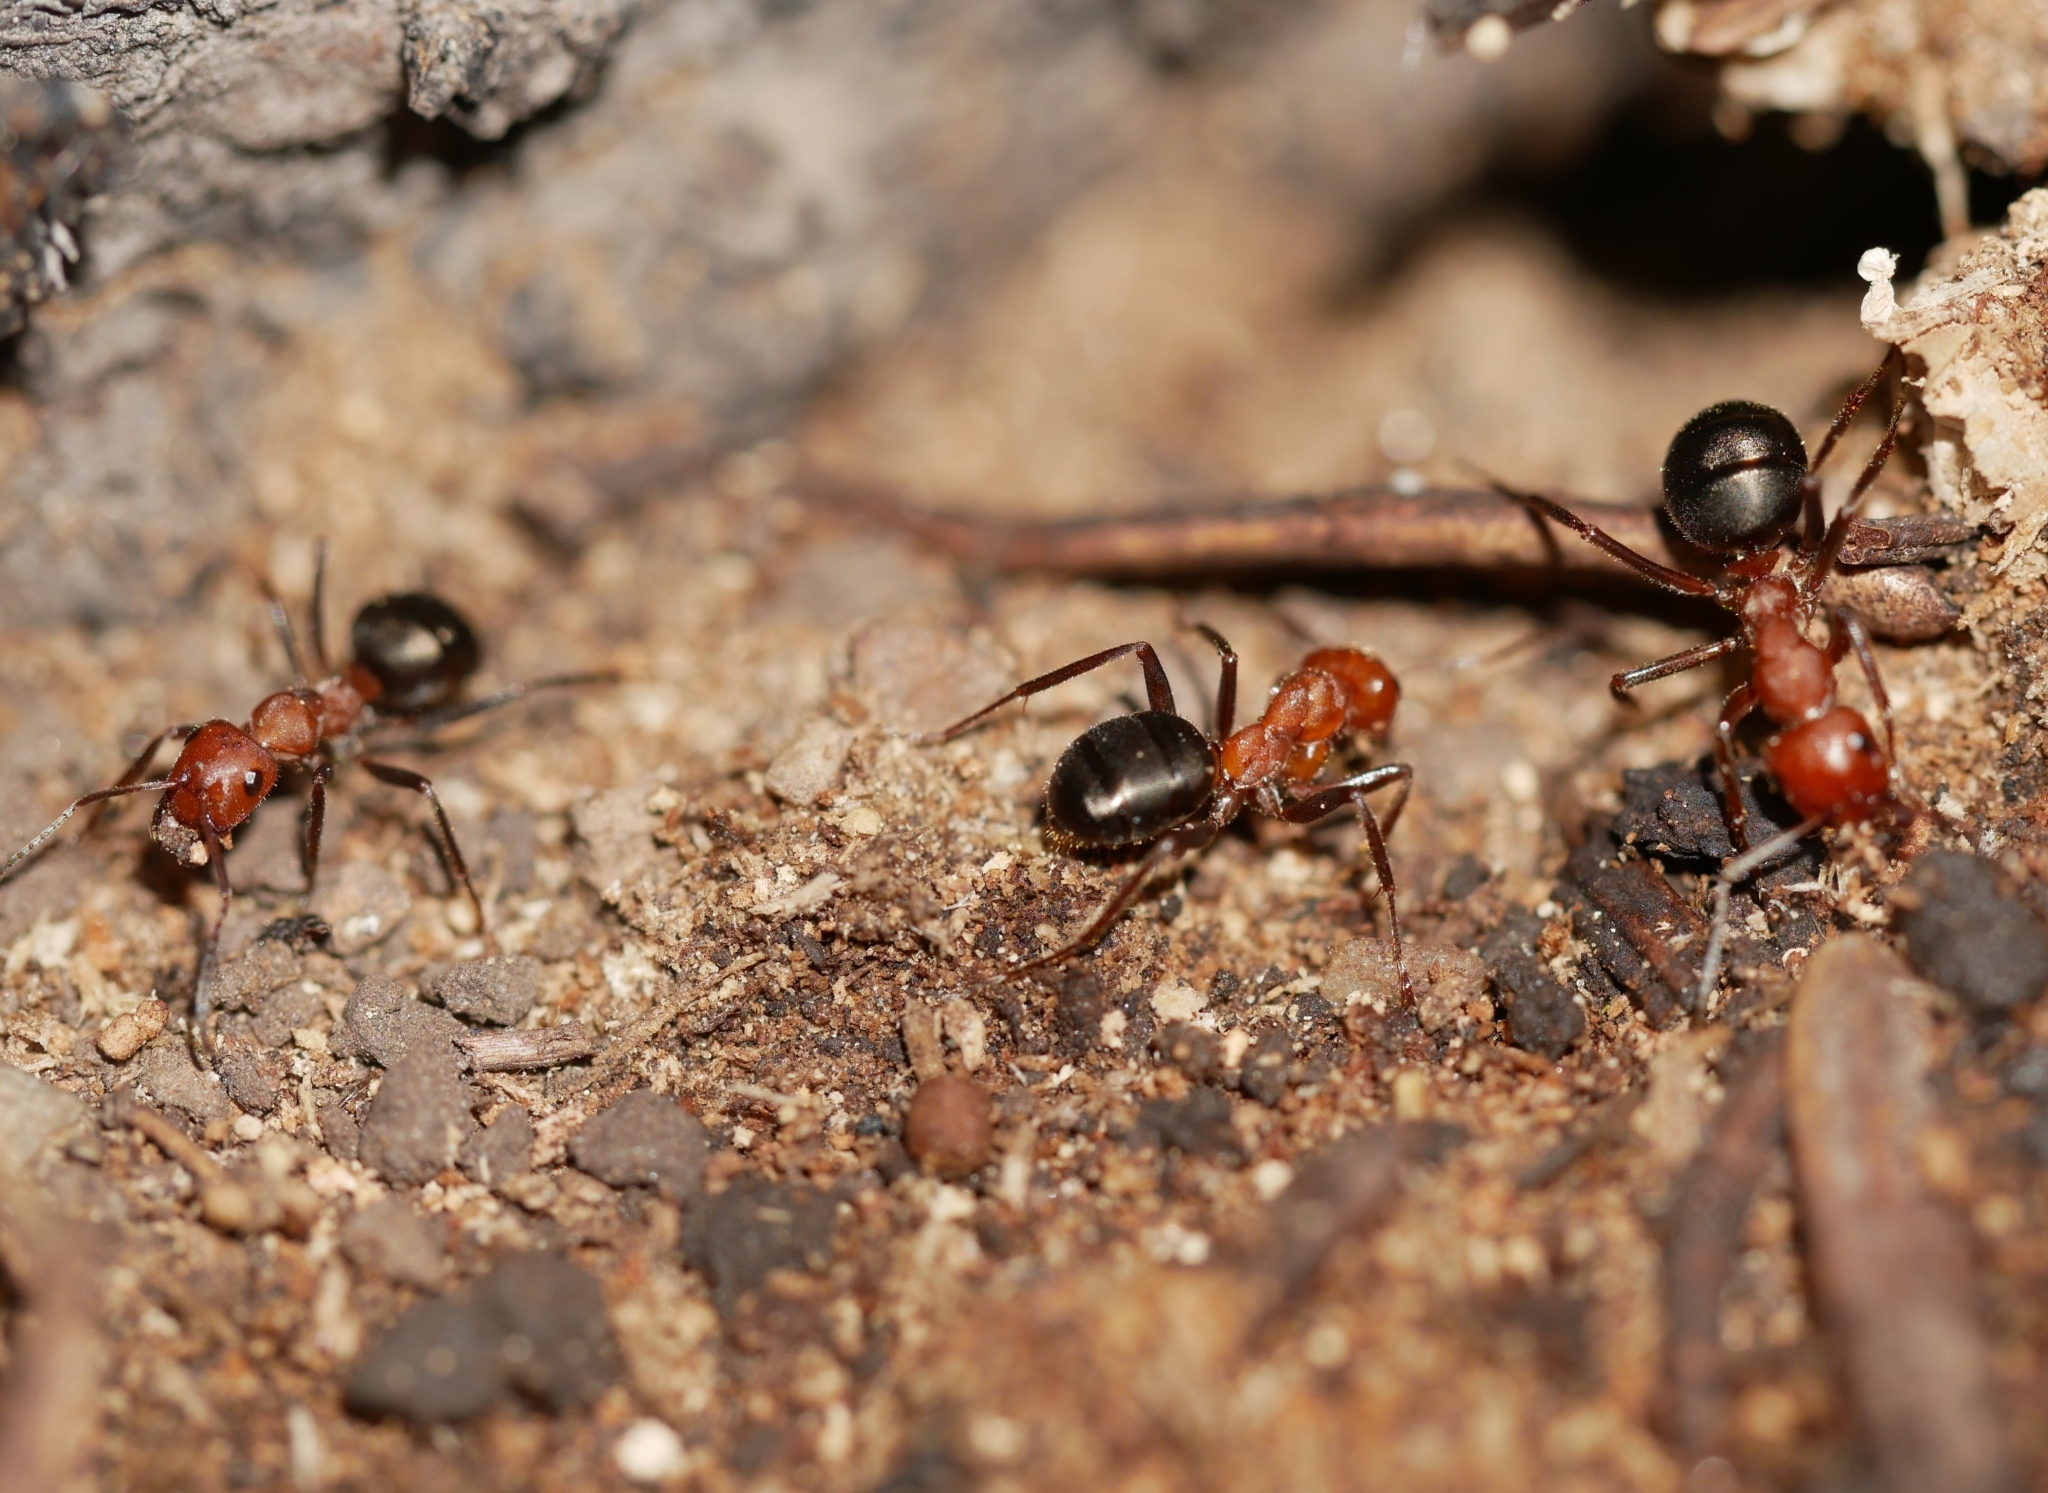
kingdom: Animalia
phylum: Arthropoda
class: Insecta
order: Hymenoptera
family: Formicidae
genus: Formica
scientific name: Formica oreas
